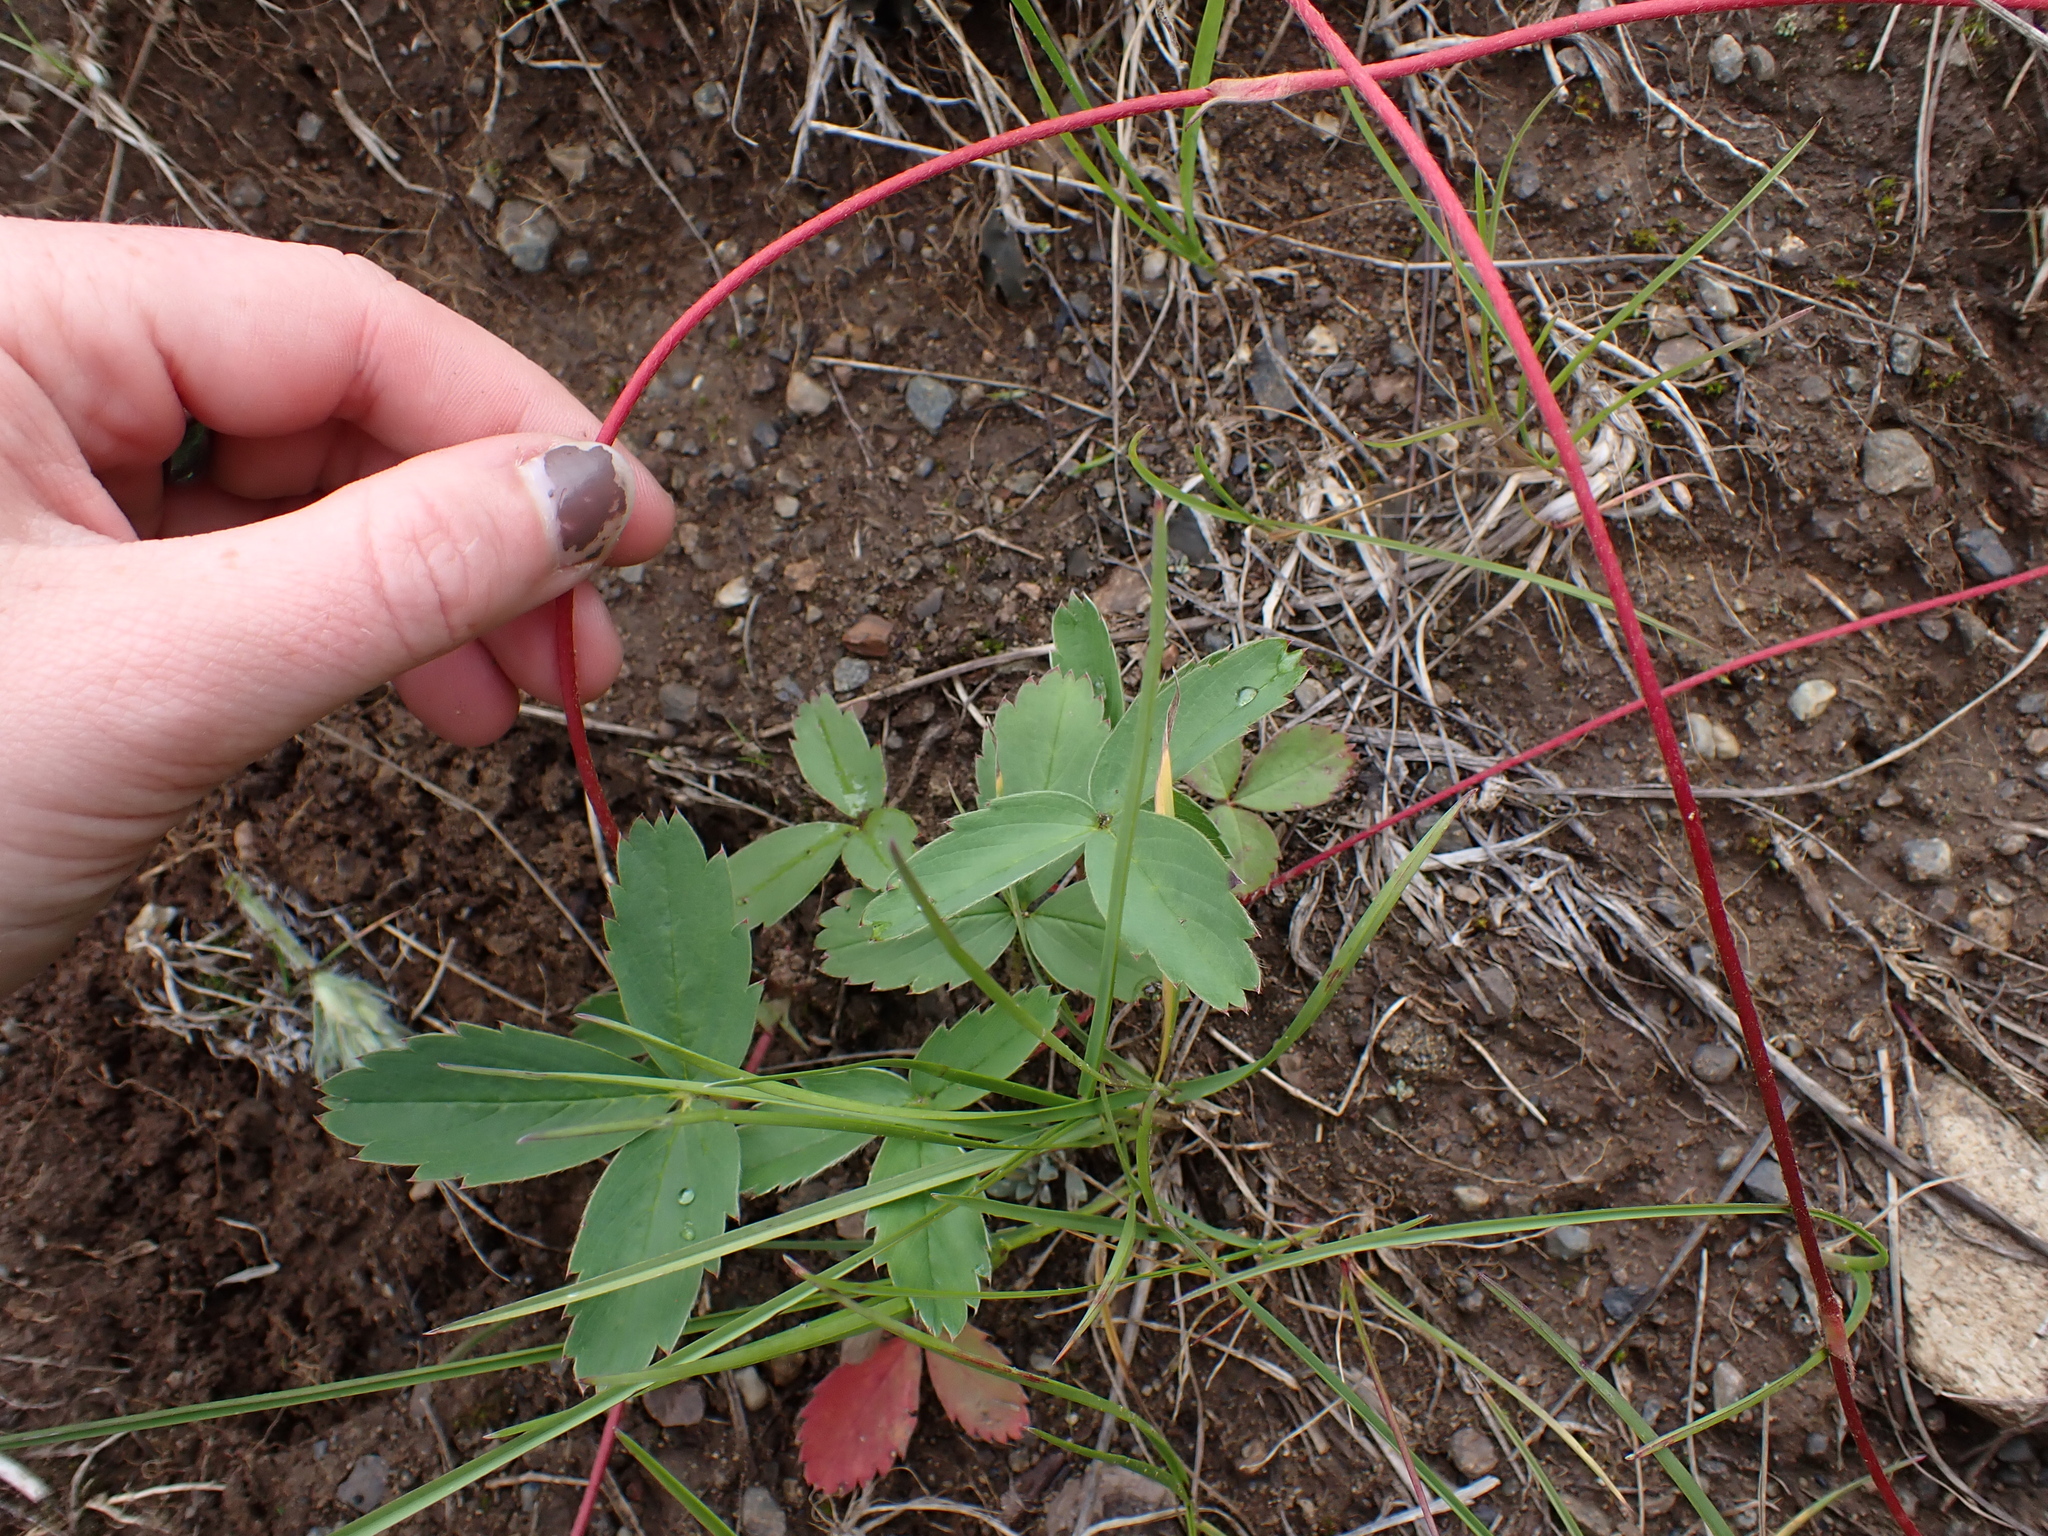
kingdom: Plantae
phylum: Tracheophyta
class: Magnoliopsida
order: Rosales
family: Rosaceae
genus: Fragaria
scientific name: Fragaria virginiana
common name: Thickleaved wild strawberry
